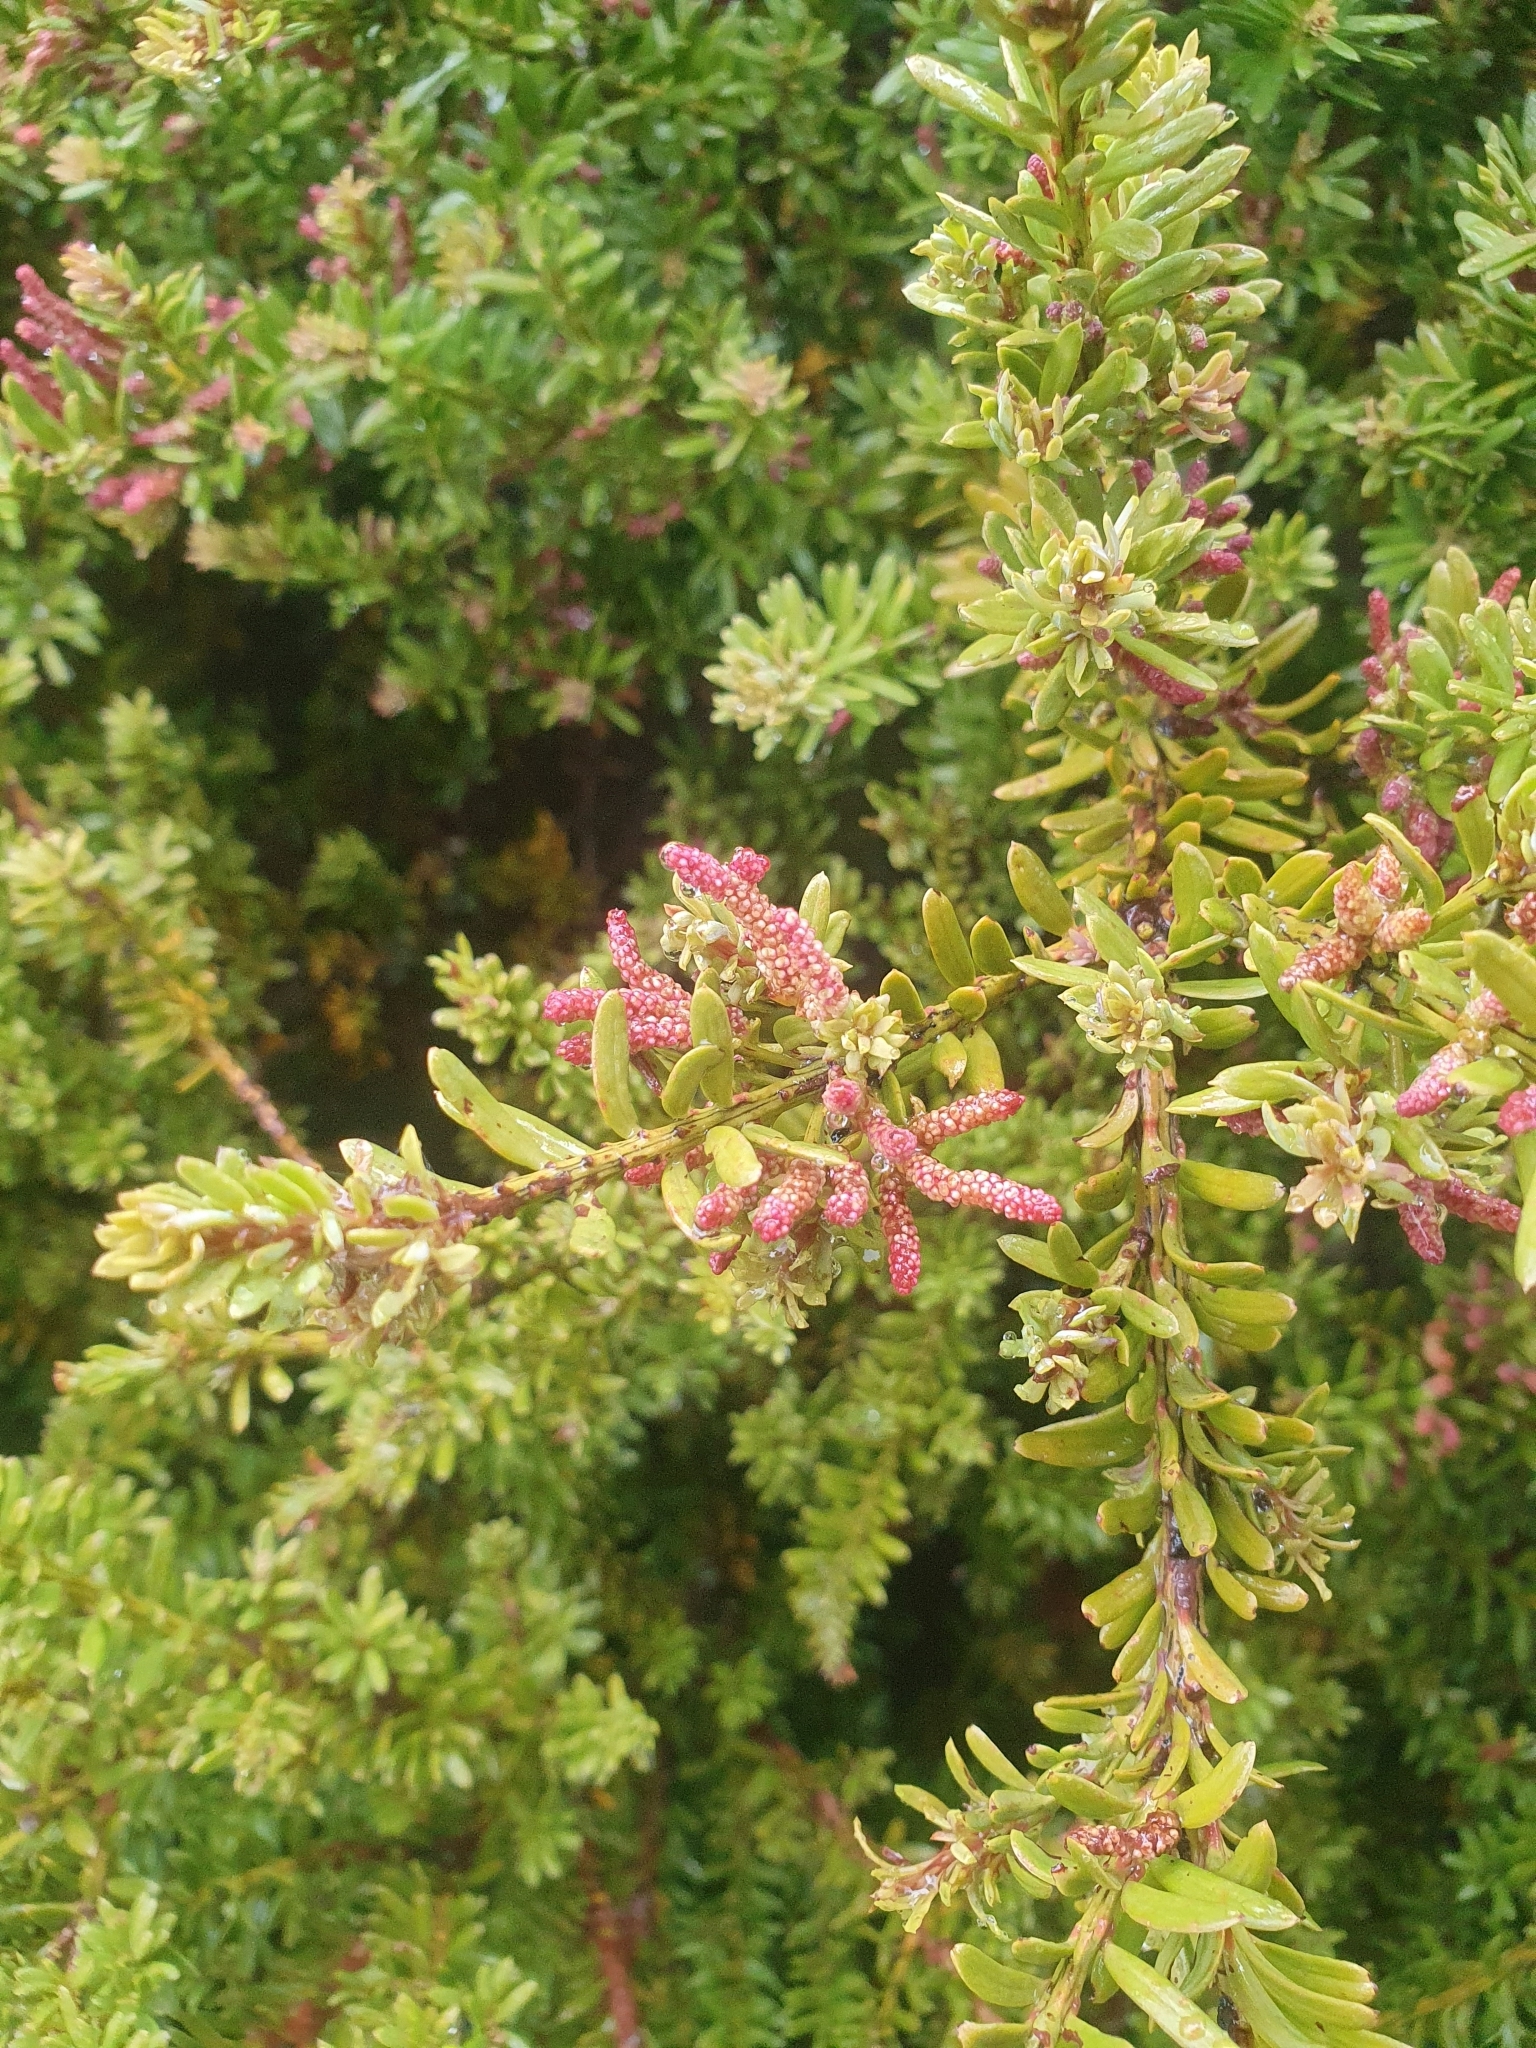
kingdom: Plantae
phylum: Tracheophyta
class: Pinopsida
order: Pinales
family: Podocarpaceae
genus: Podocarpus
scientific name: Podocarpus laetus
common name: Hall's totara
